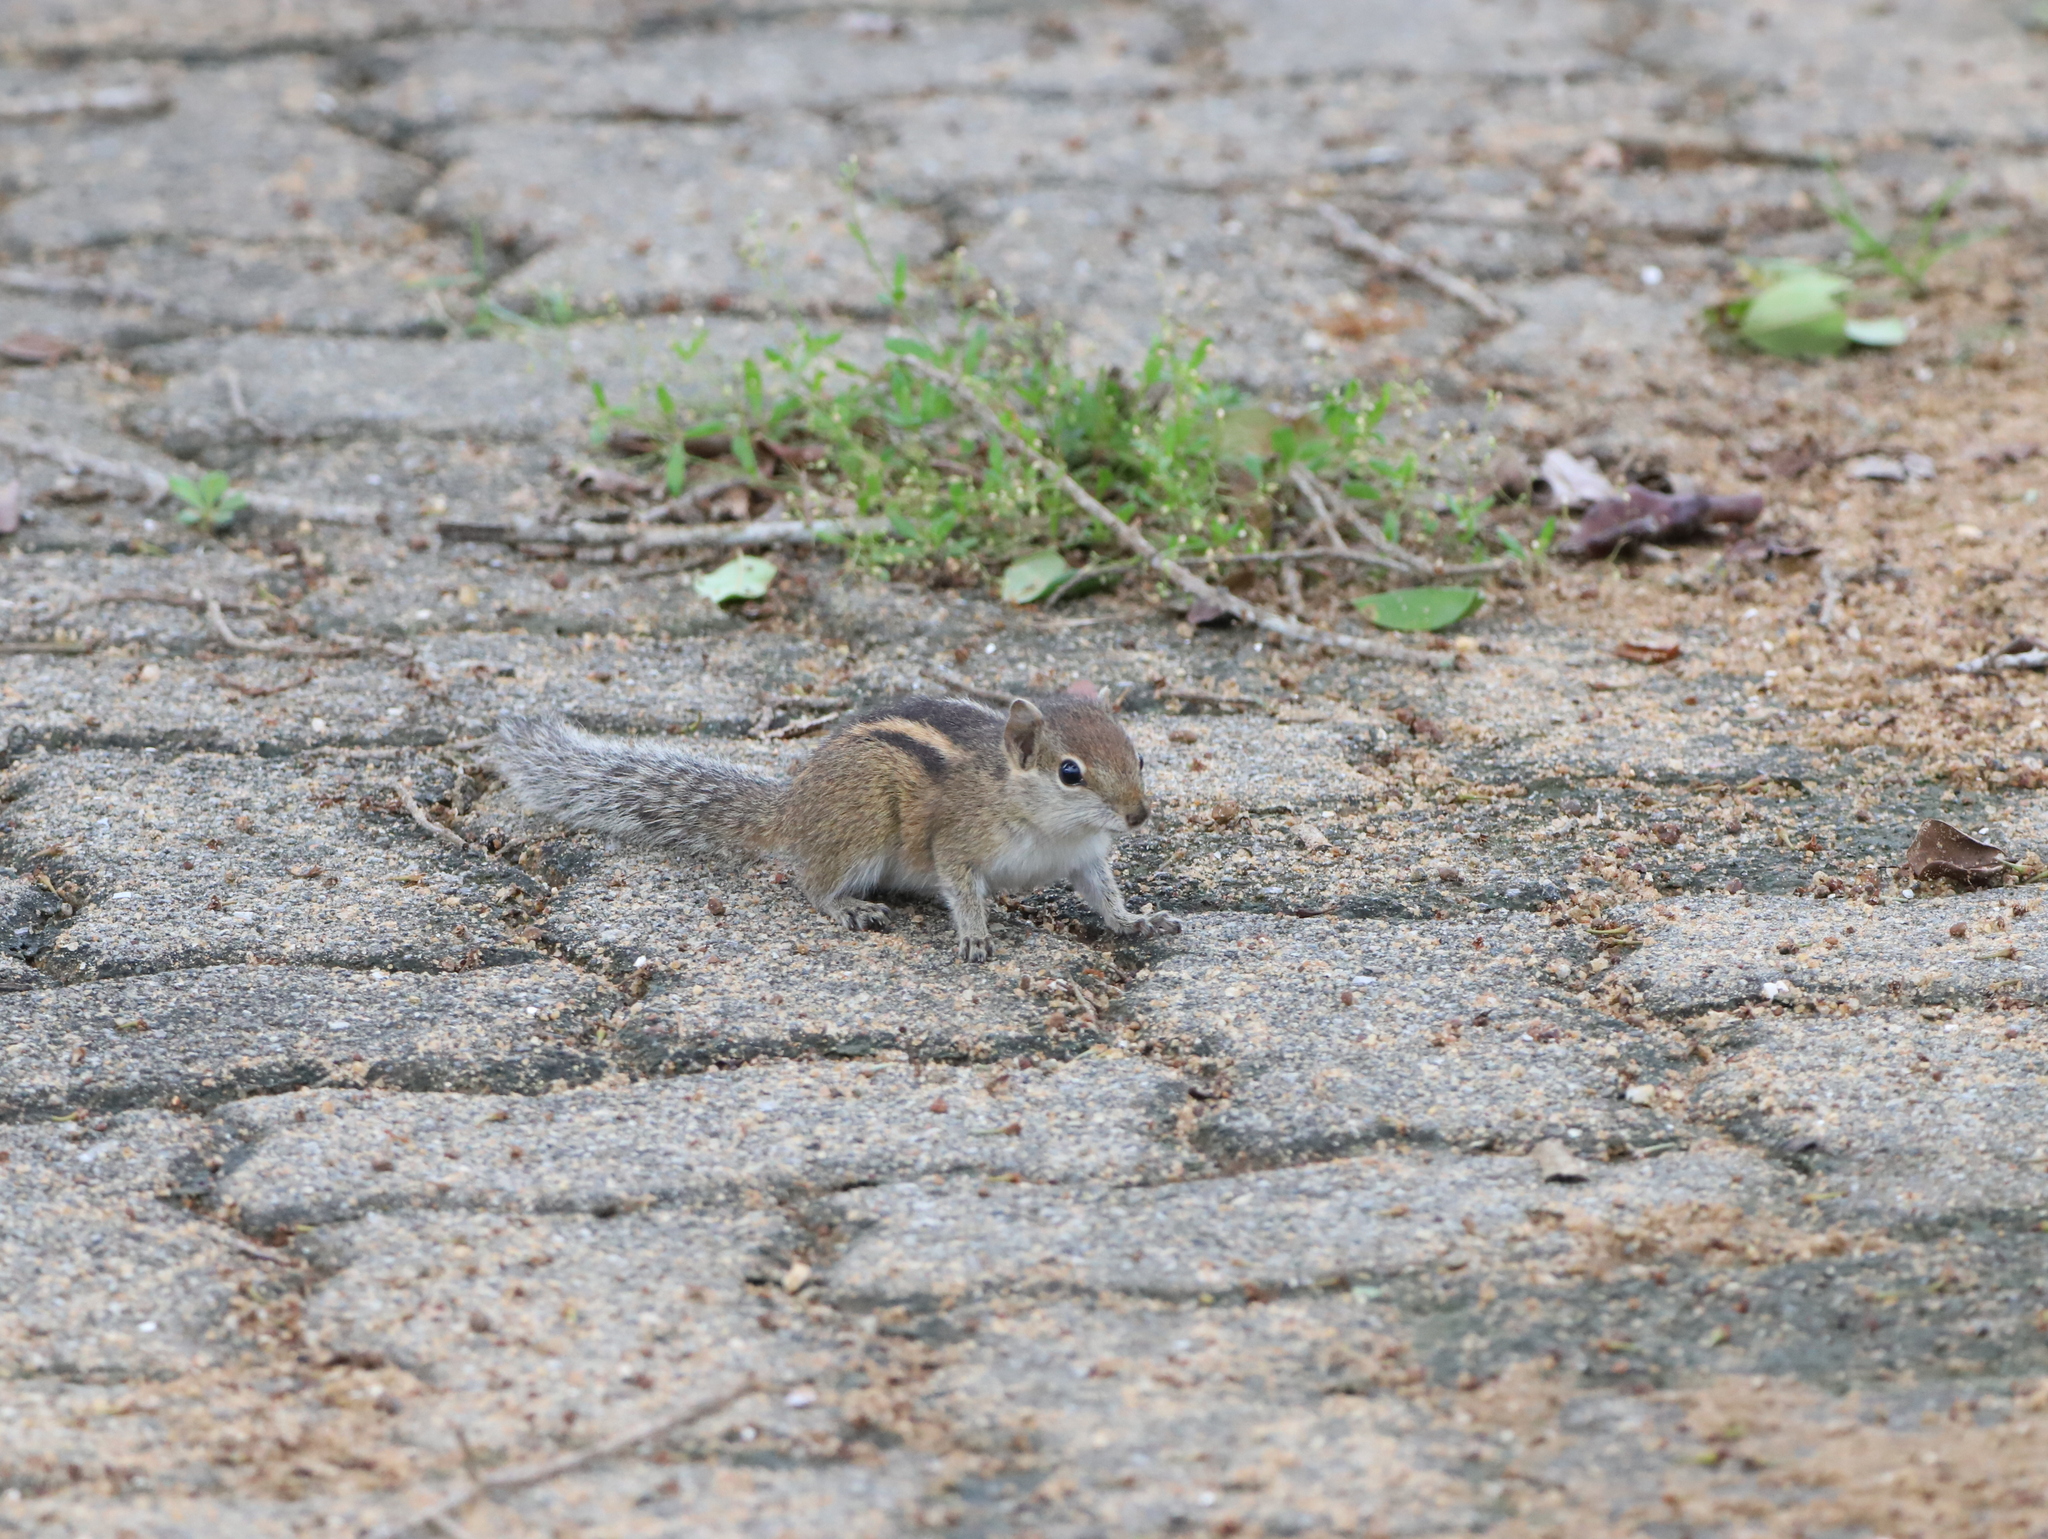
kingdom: Animalia
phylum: Chordata
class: Mammalia
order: Rodentia
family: Sciuridae
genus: Funambulus
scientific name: Funambulus palmarum
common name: Indian palm squirrel
